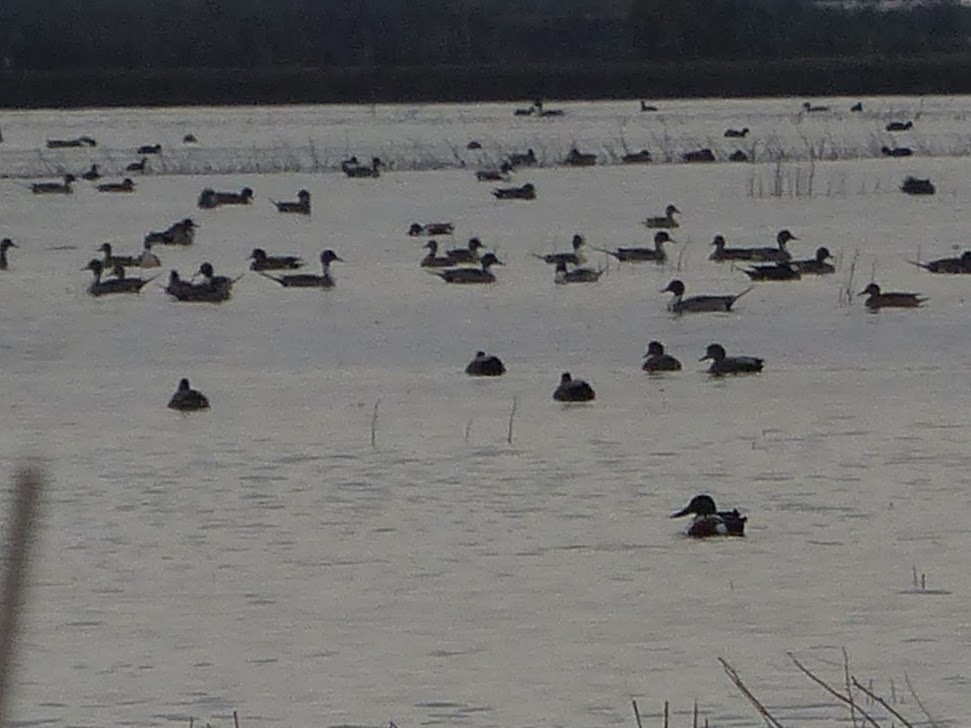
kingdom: Animalia
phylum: Chordata
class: Aves
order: Anseriformes
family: Anatidae
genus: Mareca
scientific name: Mareca strepera
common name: Gadwall
